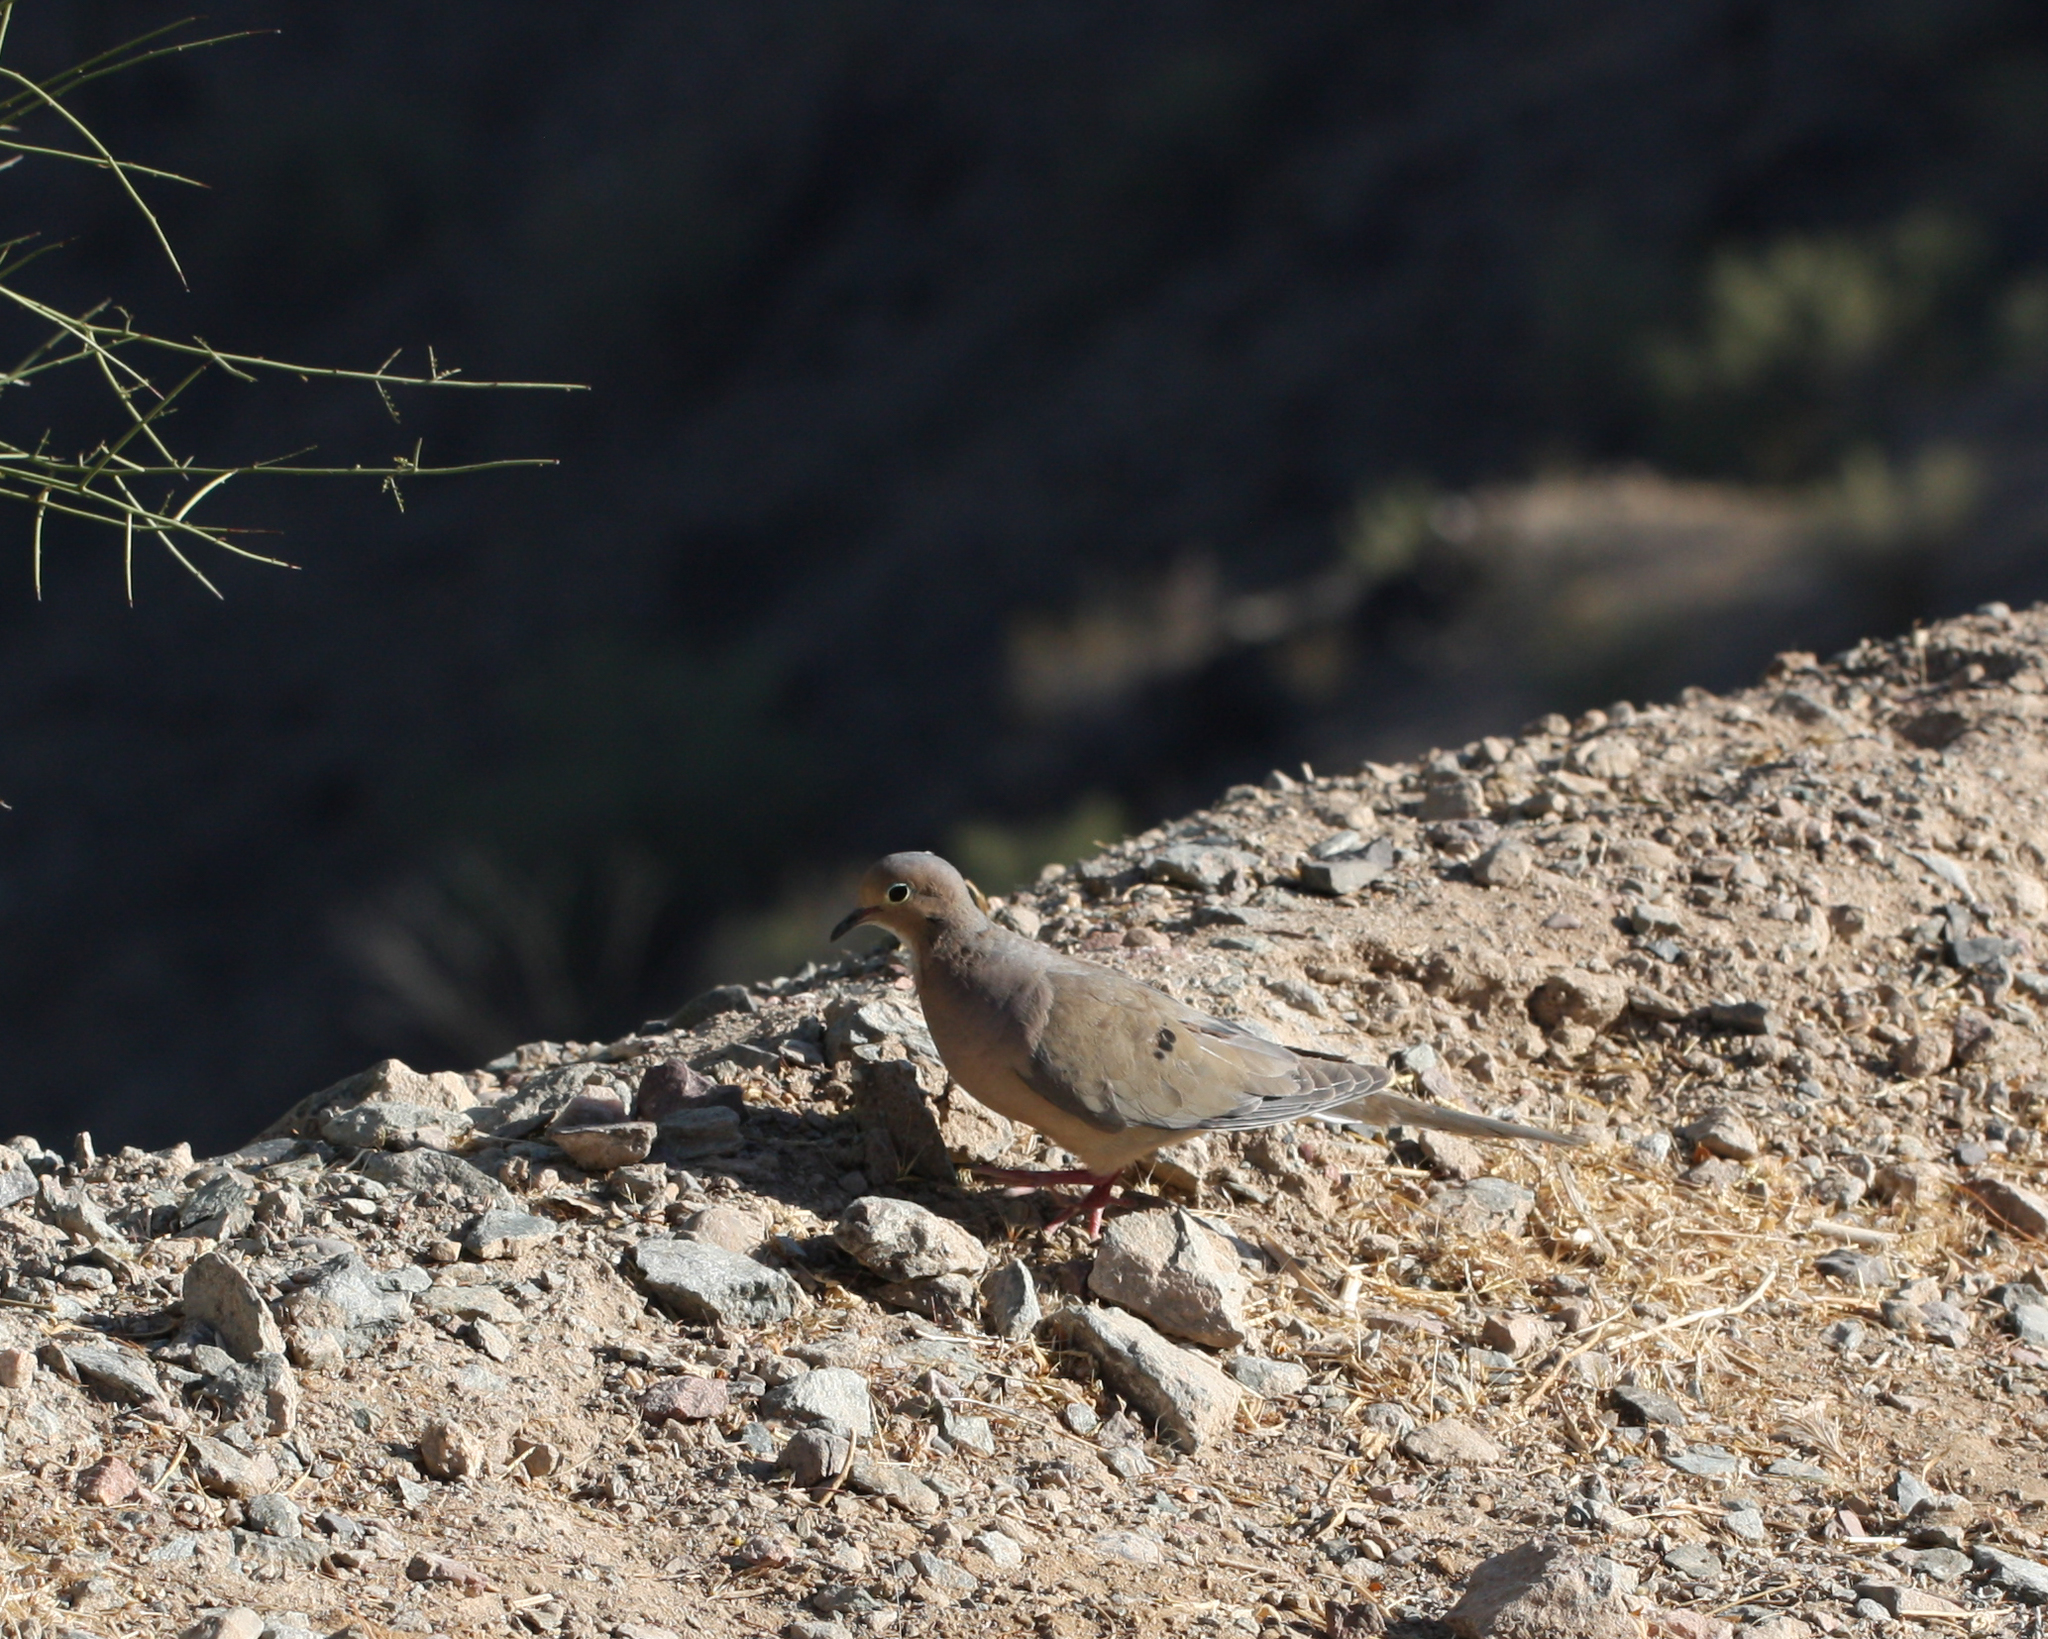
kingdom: Animalia
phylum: Chordata
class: Aves
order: Columbiformes
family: Columbidae
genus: Zenaida
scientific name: Zenaida macroura
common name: Mourning dove
